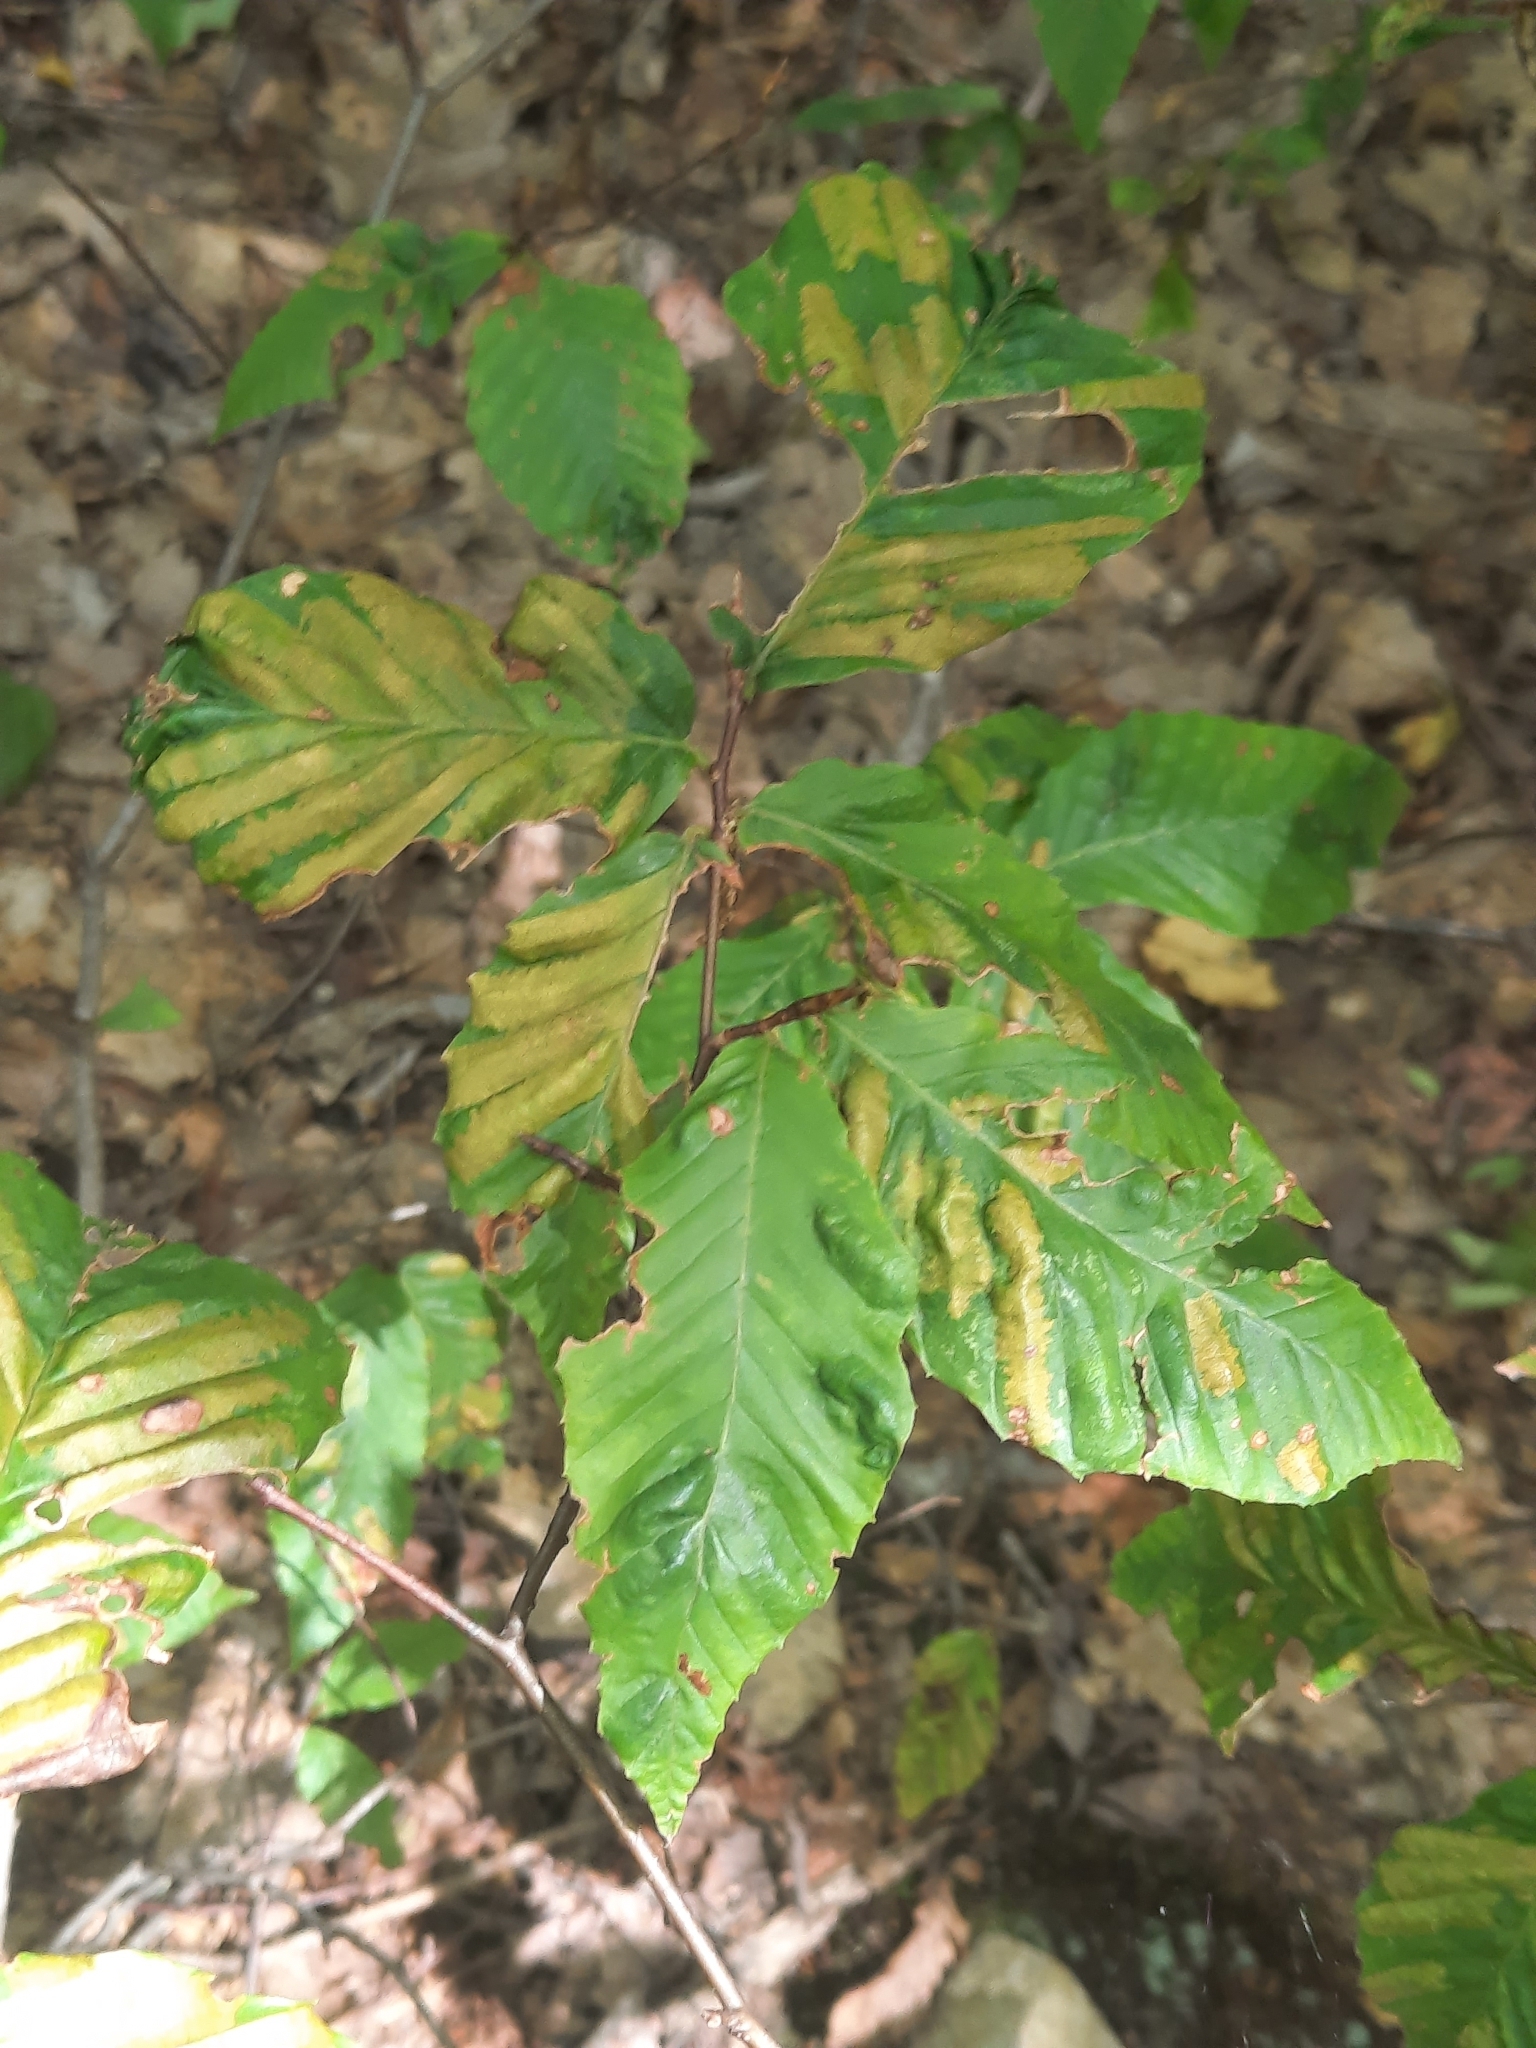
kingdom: Animalia
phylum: Nematoda
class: Chromadorea
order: Rhabditida
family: Anguinidae
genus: Litylenchus
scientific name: Litylenchus crenatae
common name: Beech leaf disease
